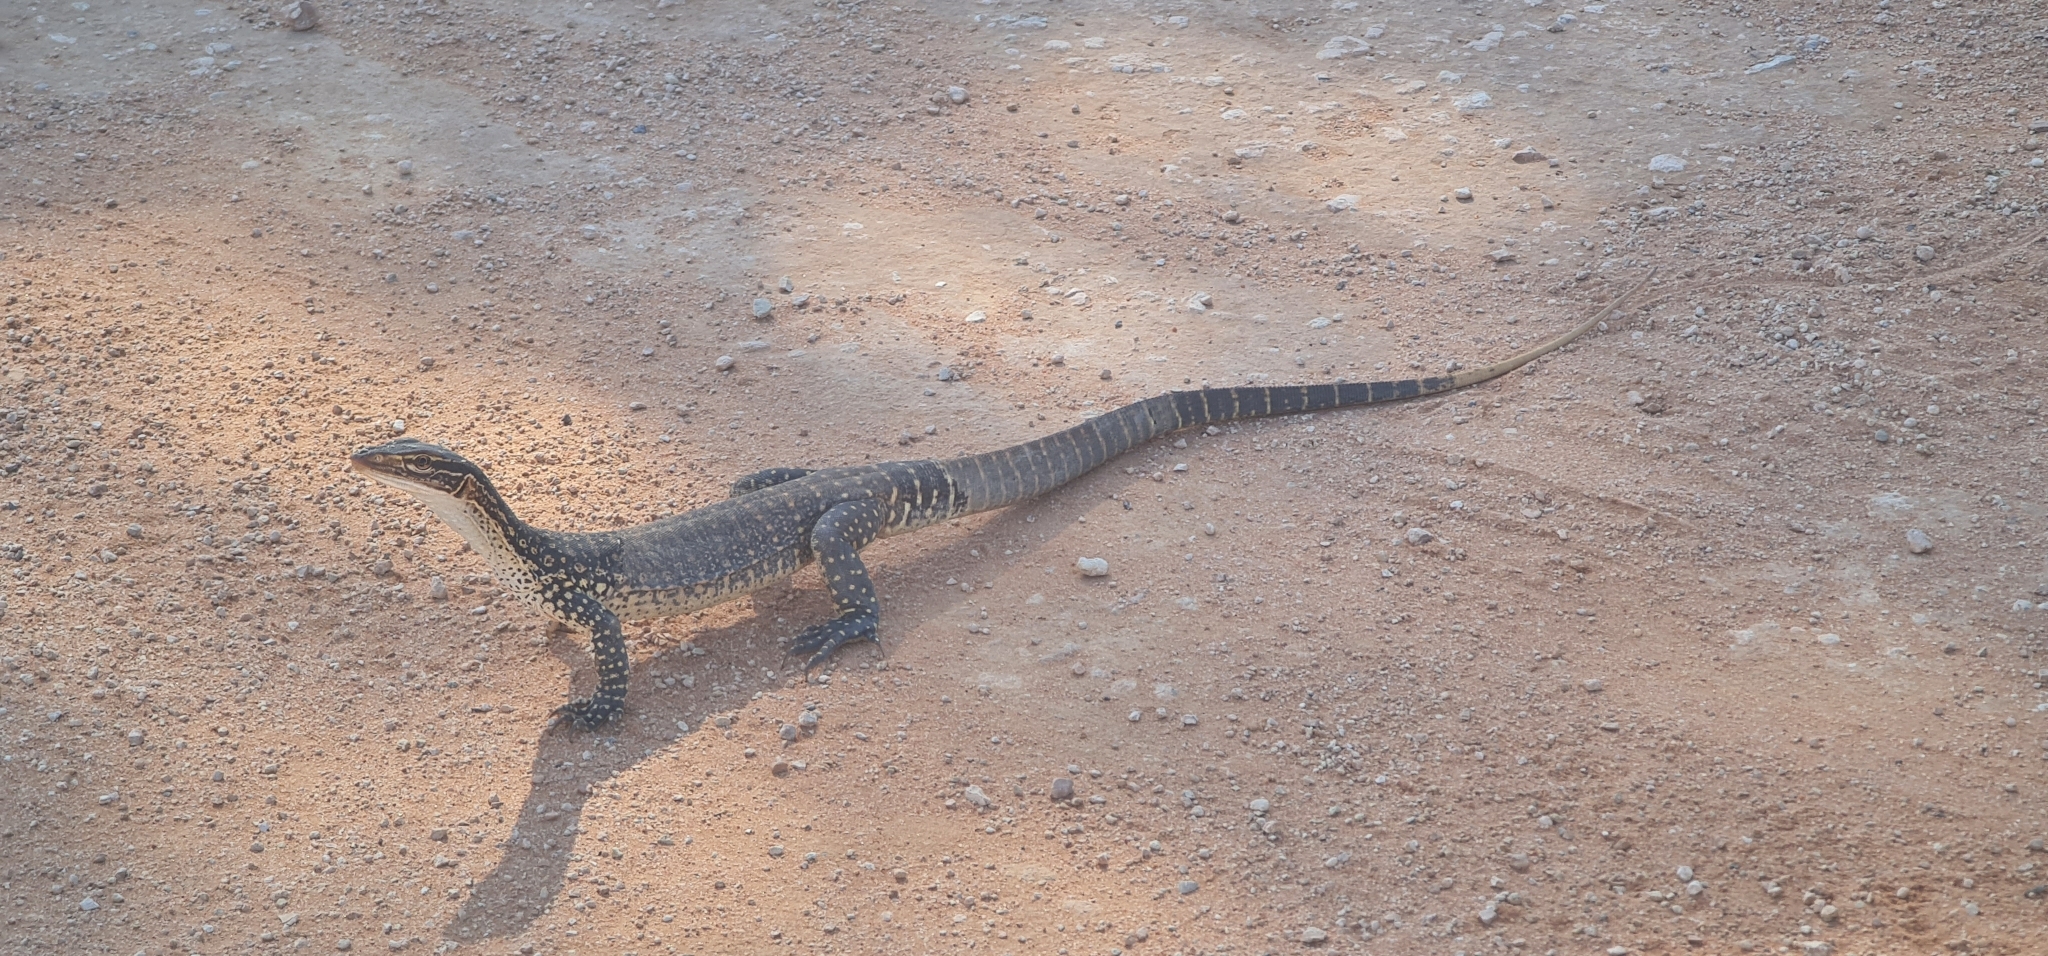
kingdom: Animalia
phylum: Chordata
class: Squamata
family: Varanidae
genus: Varanus
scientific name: Varanus gouldii
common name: Gould's goanna
